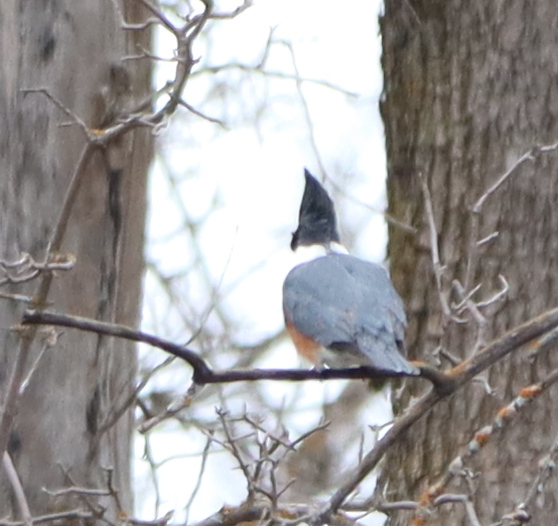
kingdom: Animalia
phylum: Chordata
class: Aves
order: Coraciiformes
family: Alcedinidae
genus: Megaceryle
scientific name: Megaceryle alcyon
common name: Belted kingfisher
